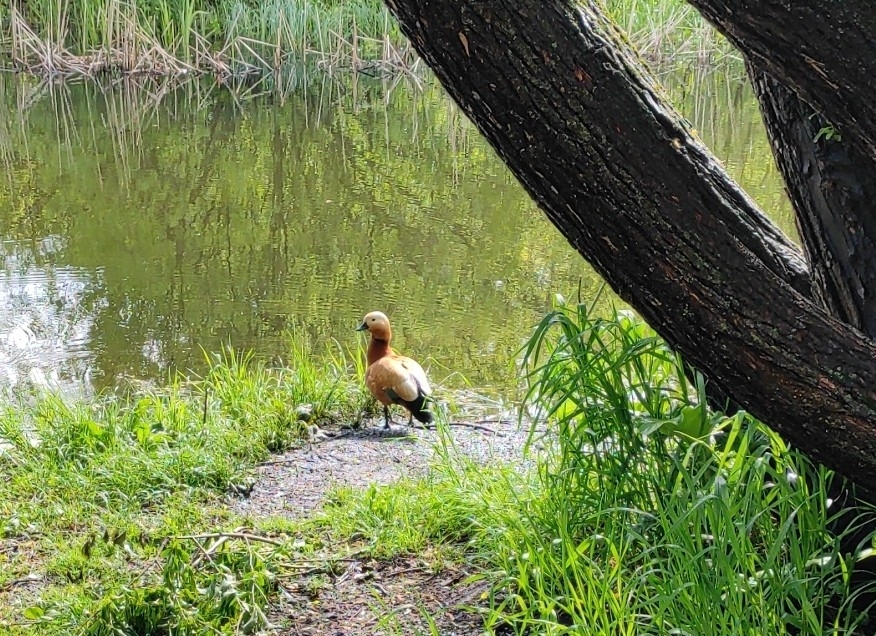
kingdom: Animalia
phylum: Chordata
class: Aves
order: Anseriformes
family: Anatidae
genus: Tadorna
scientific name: Tadorna ferruginea
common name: Ruddy shelduck
